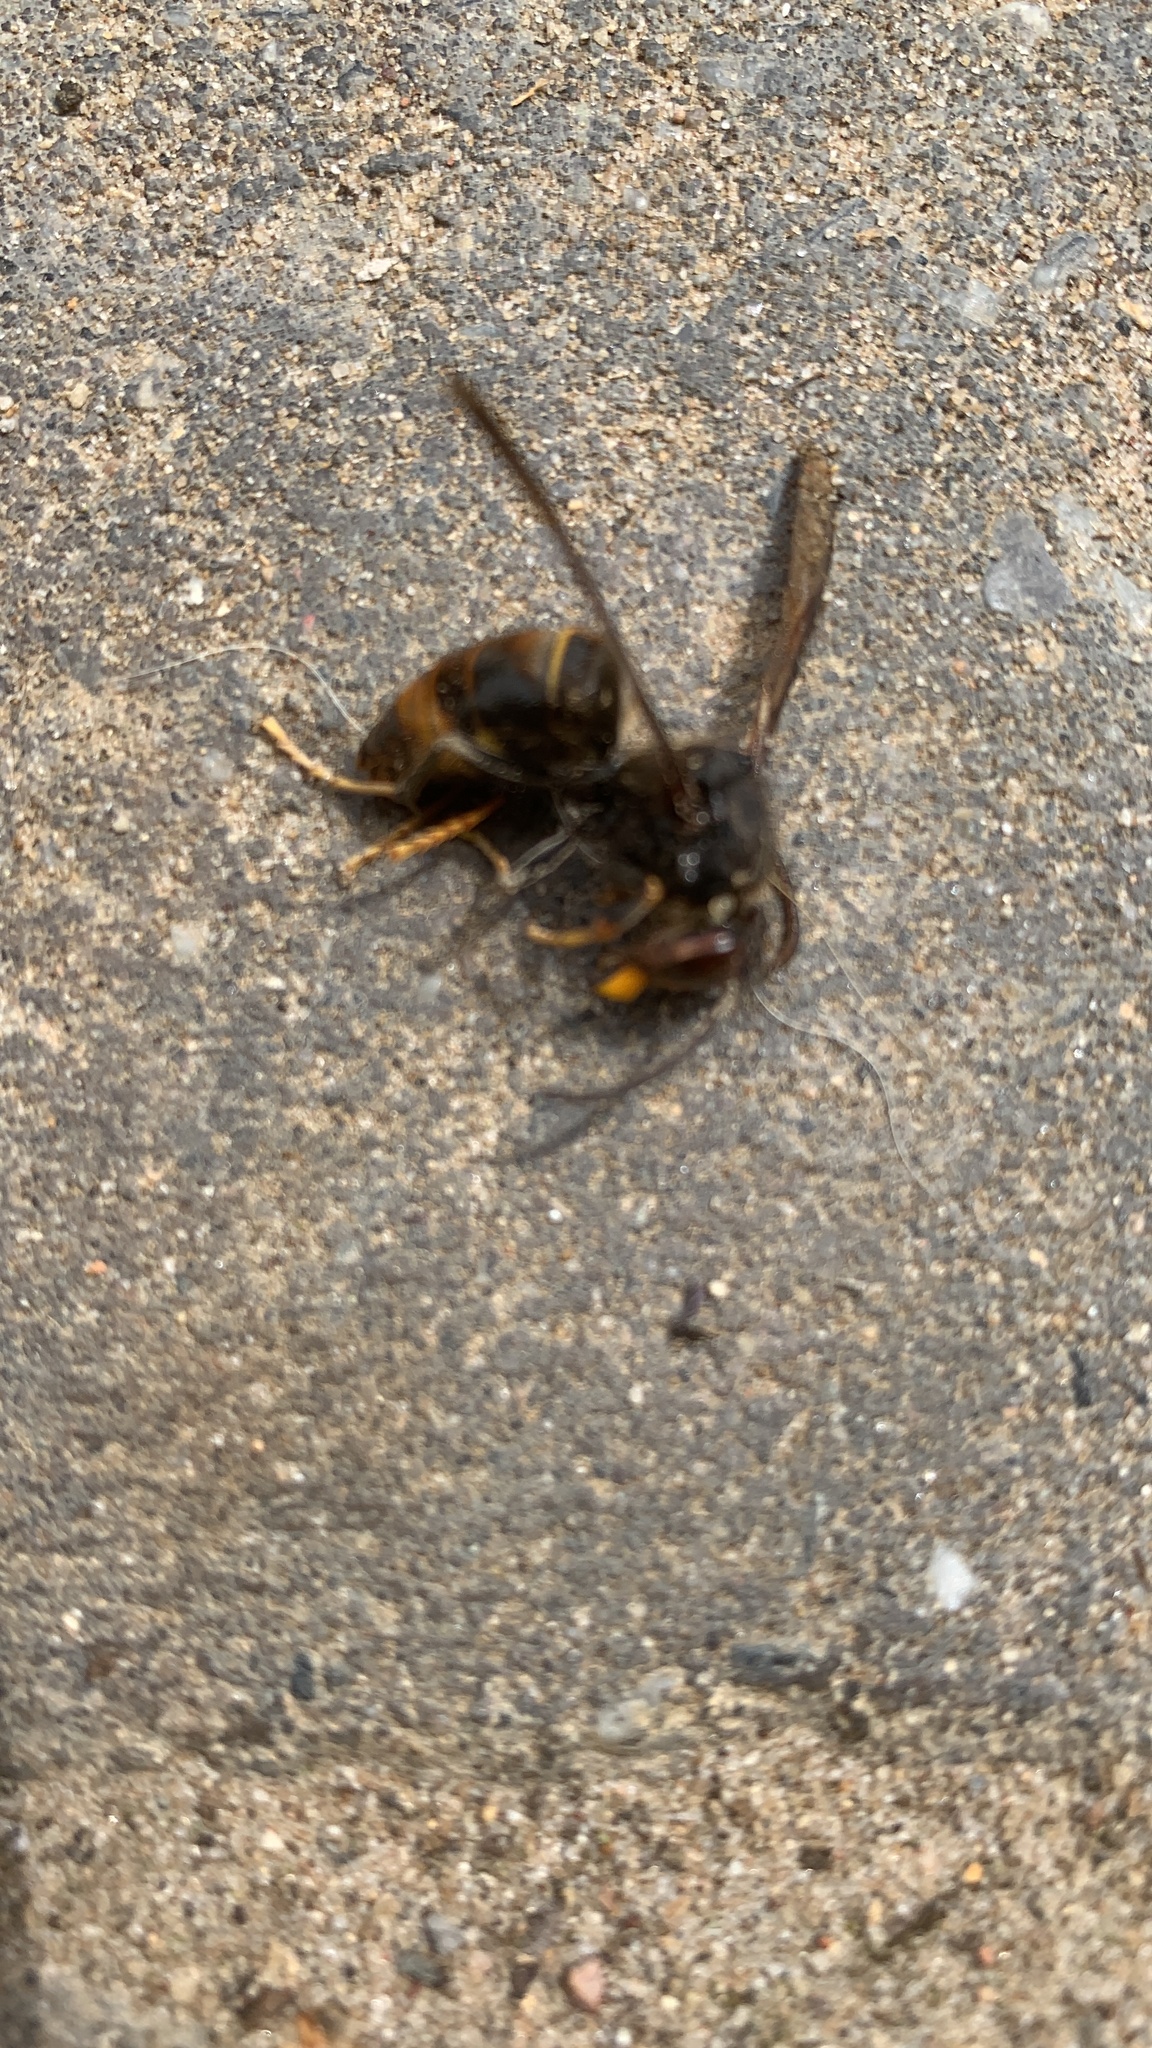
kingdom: Animalia
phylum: Arthropoda
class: Insecta
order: Hymenoptera
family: Vespidae
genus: Vespa
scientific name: Vespa velutina
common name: Asian hornet
